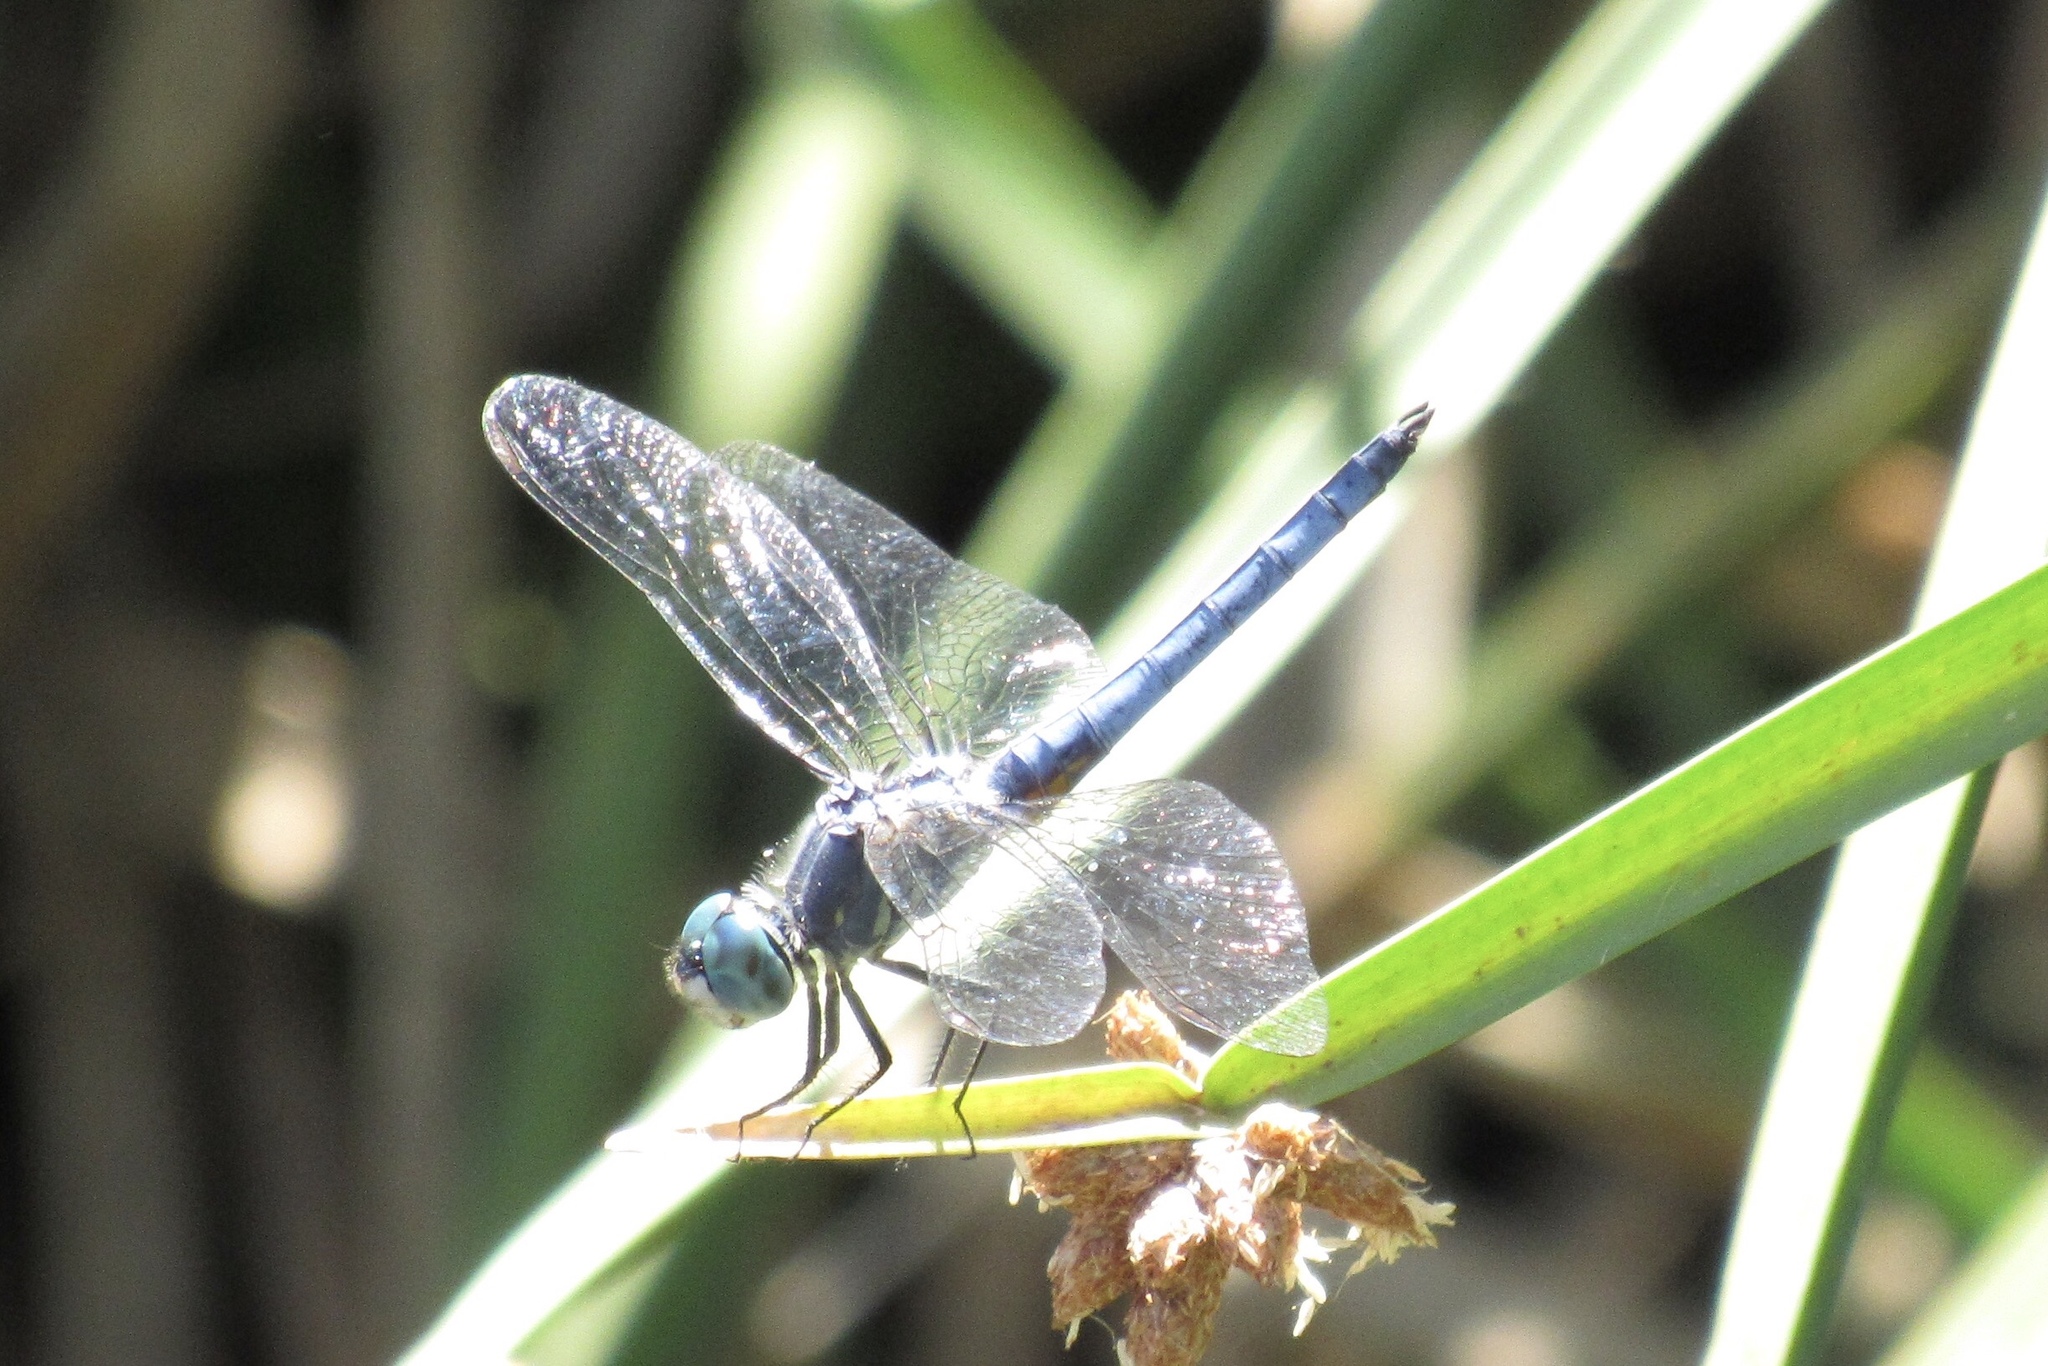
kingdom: Animalia
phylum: Arthropoda
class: Insecta
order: Odonata
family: Libellulidae
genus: Pachydiplax
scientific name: Pachydiplax longipennis
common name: Blue dasher
